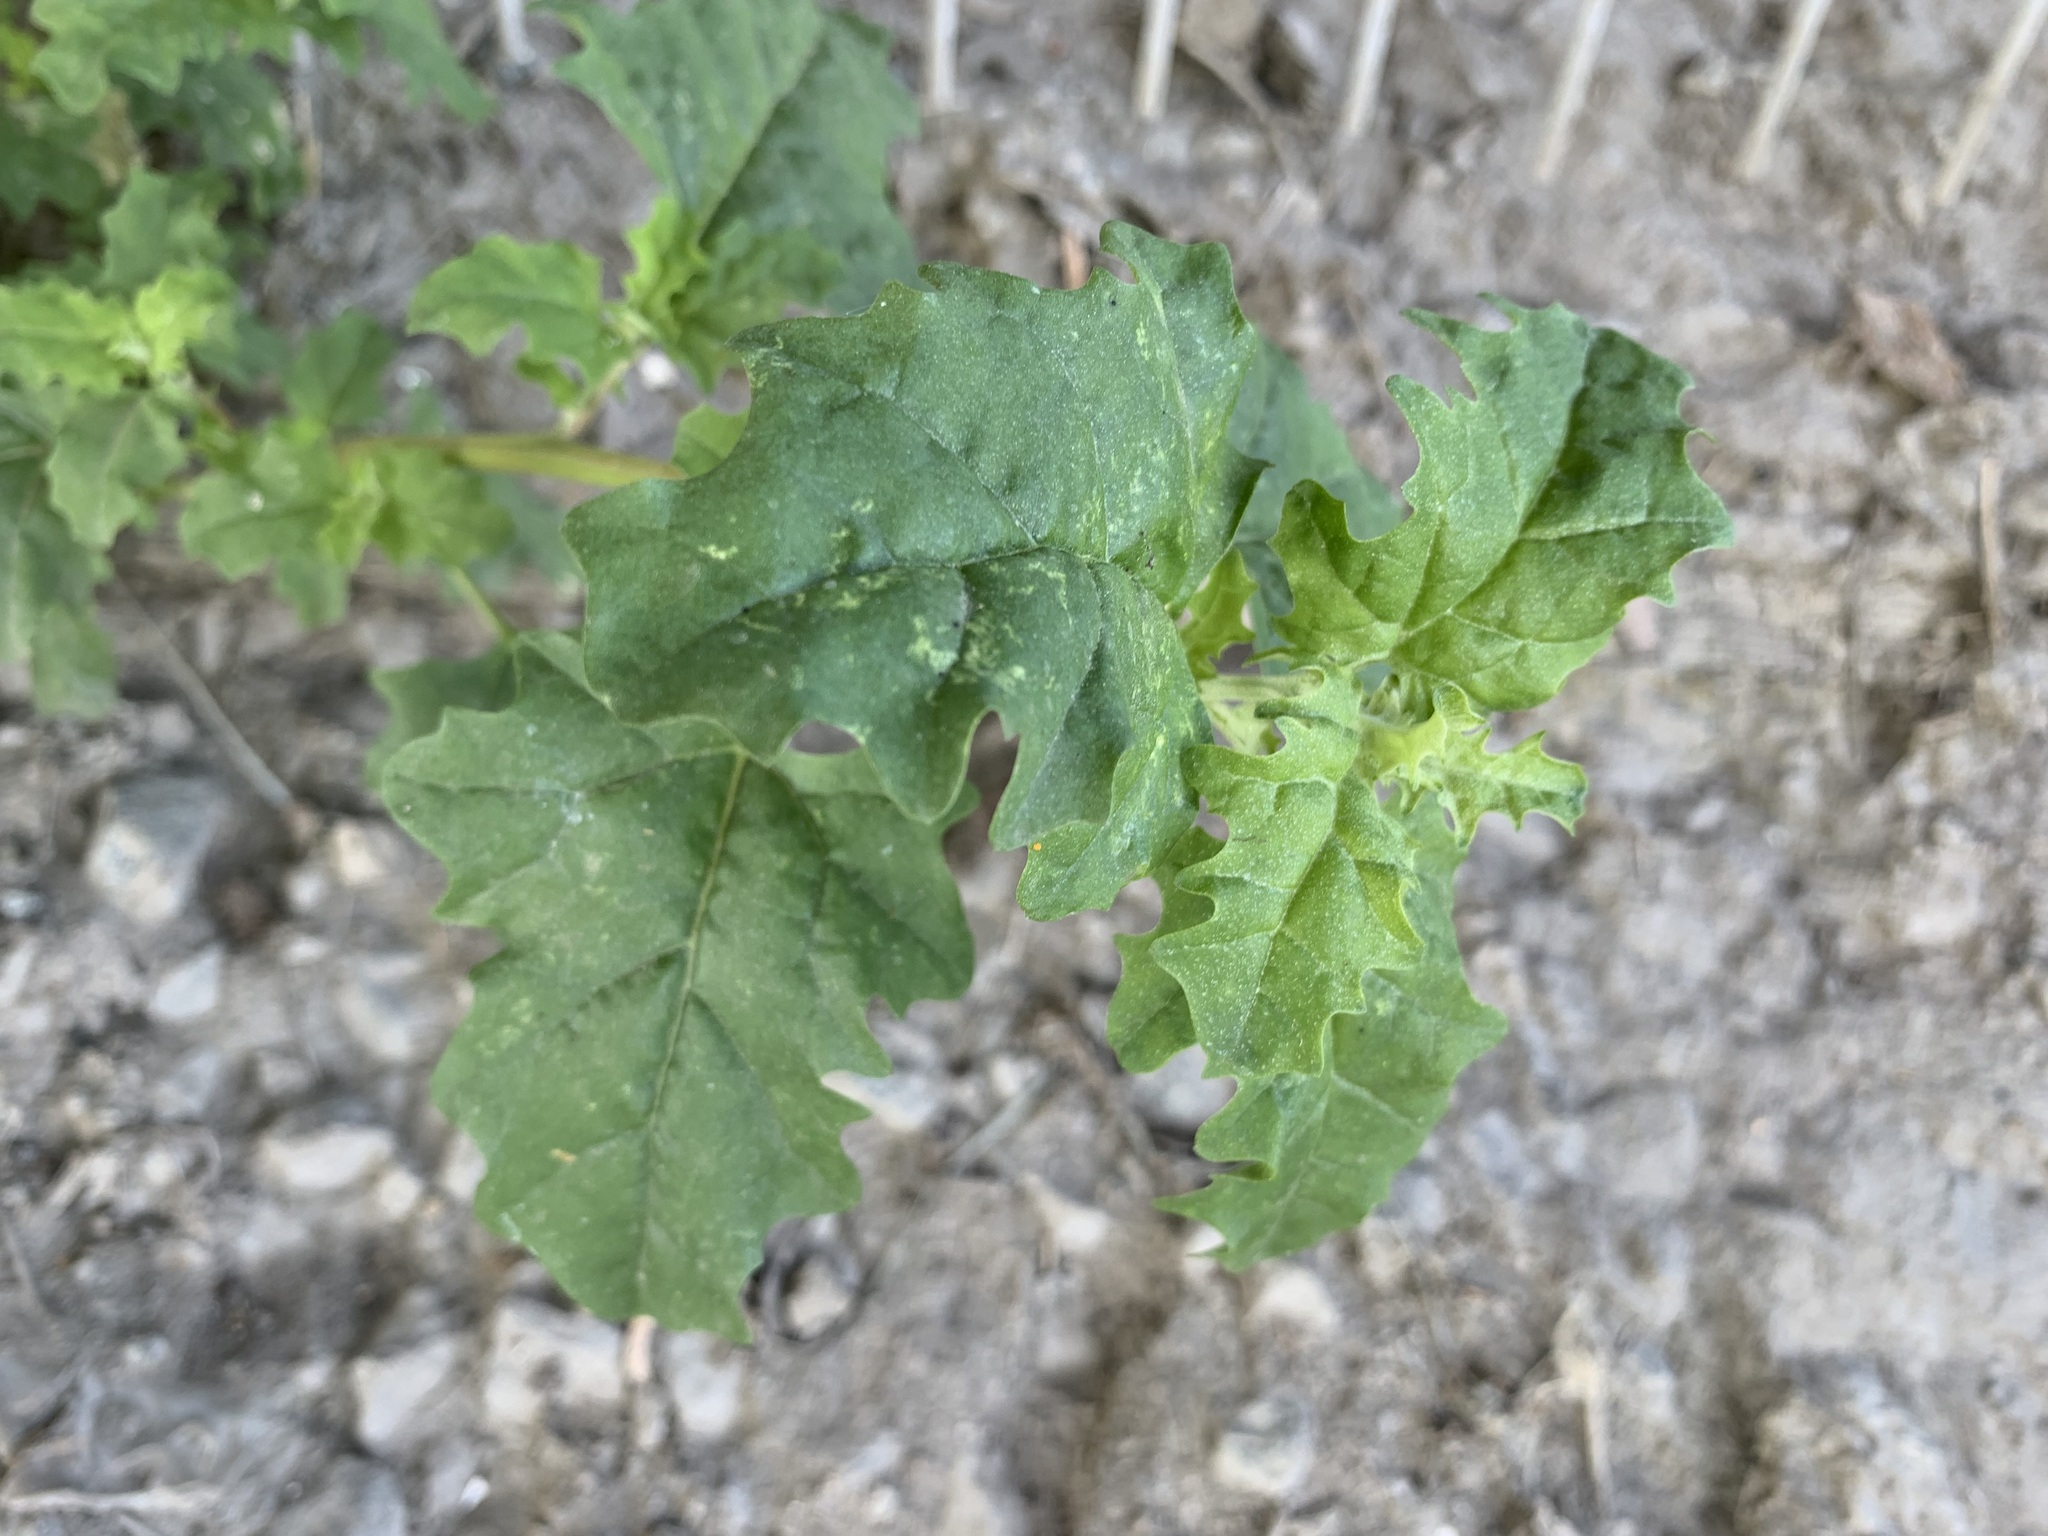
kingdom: Plantae
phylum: Tracheophyta
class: Magnoliopsida
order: Caryophyllales
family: Amaranthaceae
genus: Atriplex
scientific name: Atriplex tatarica
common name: Tatarian orache
